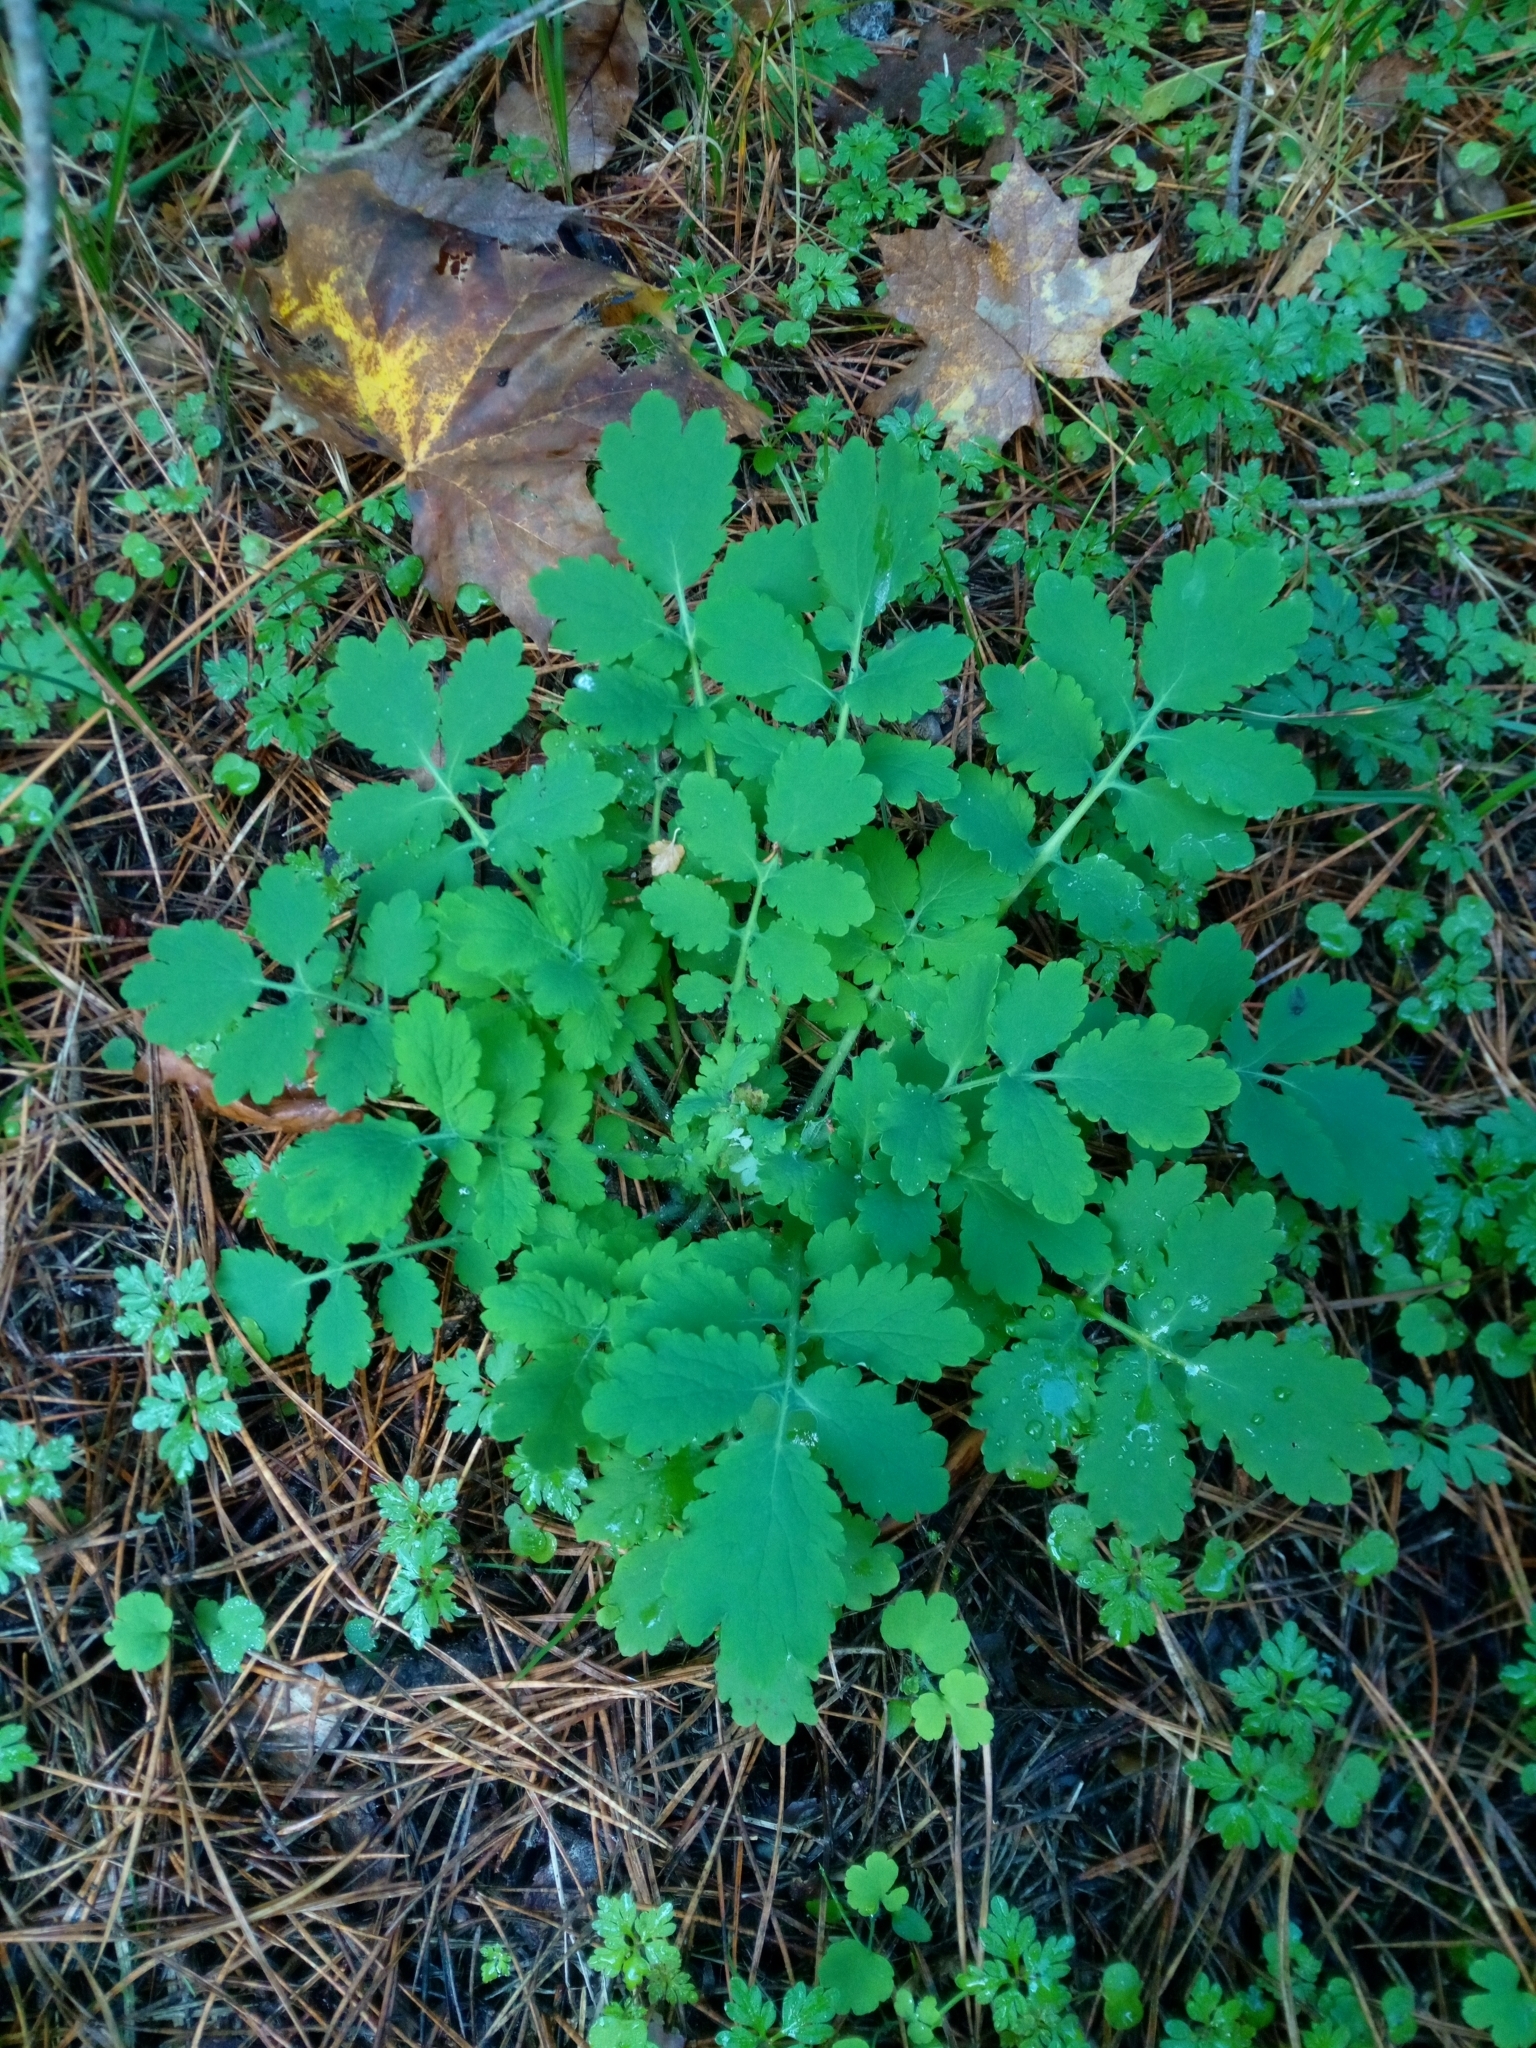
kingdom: Plantae
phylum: Tracheophyta
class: Magnoliopsida
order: Ranunculales
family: Papaveraceae
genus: Chelidonium
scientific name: Chelidonium majus
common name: Greater celandine
